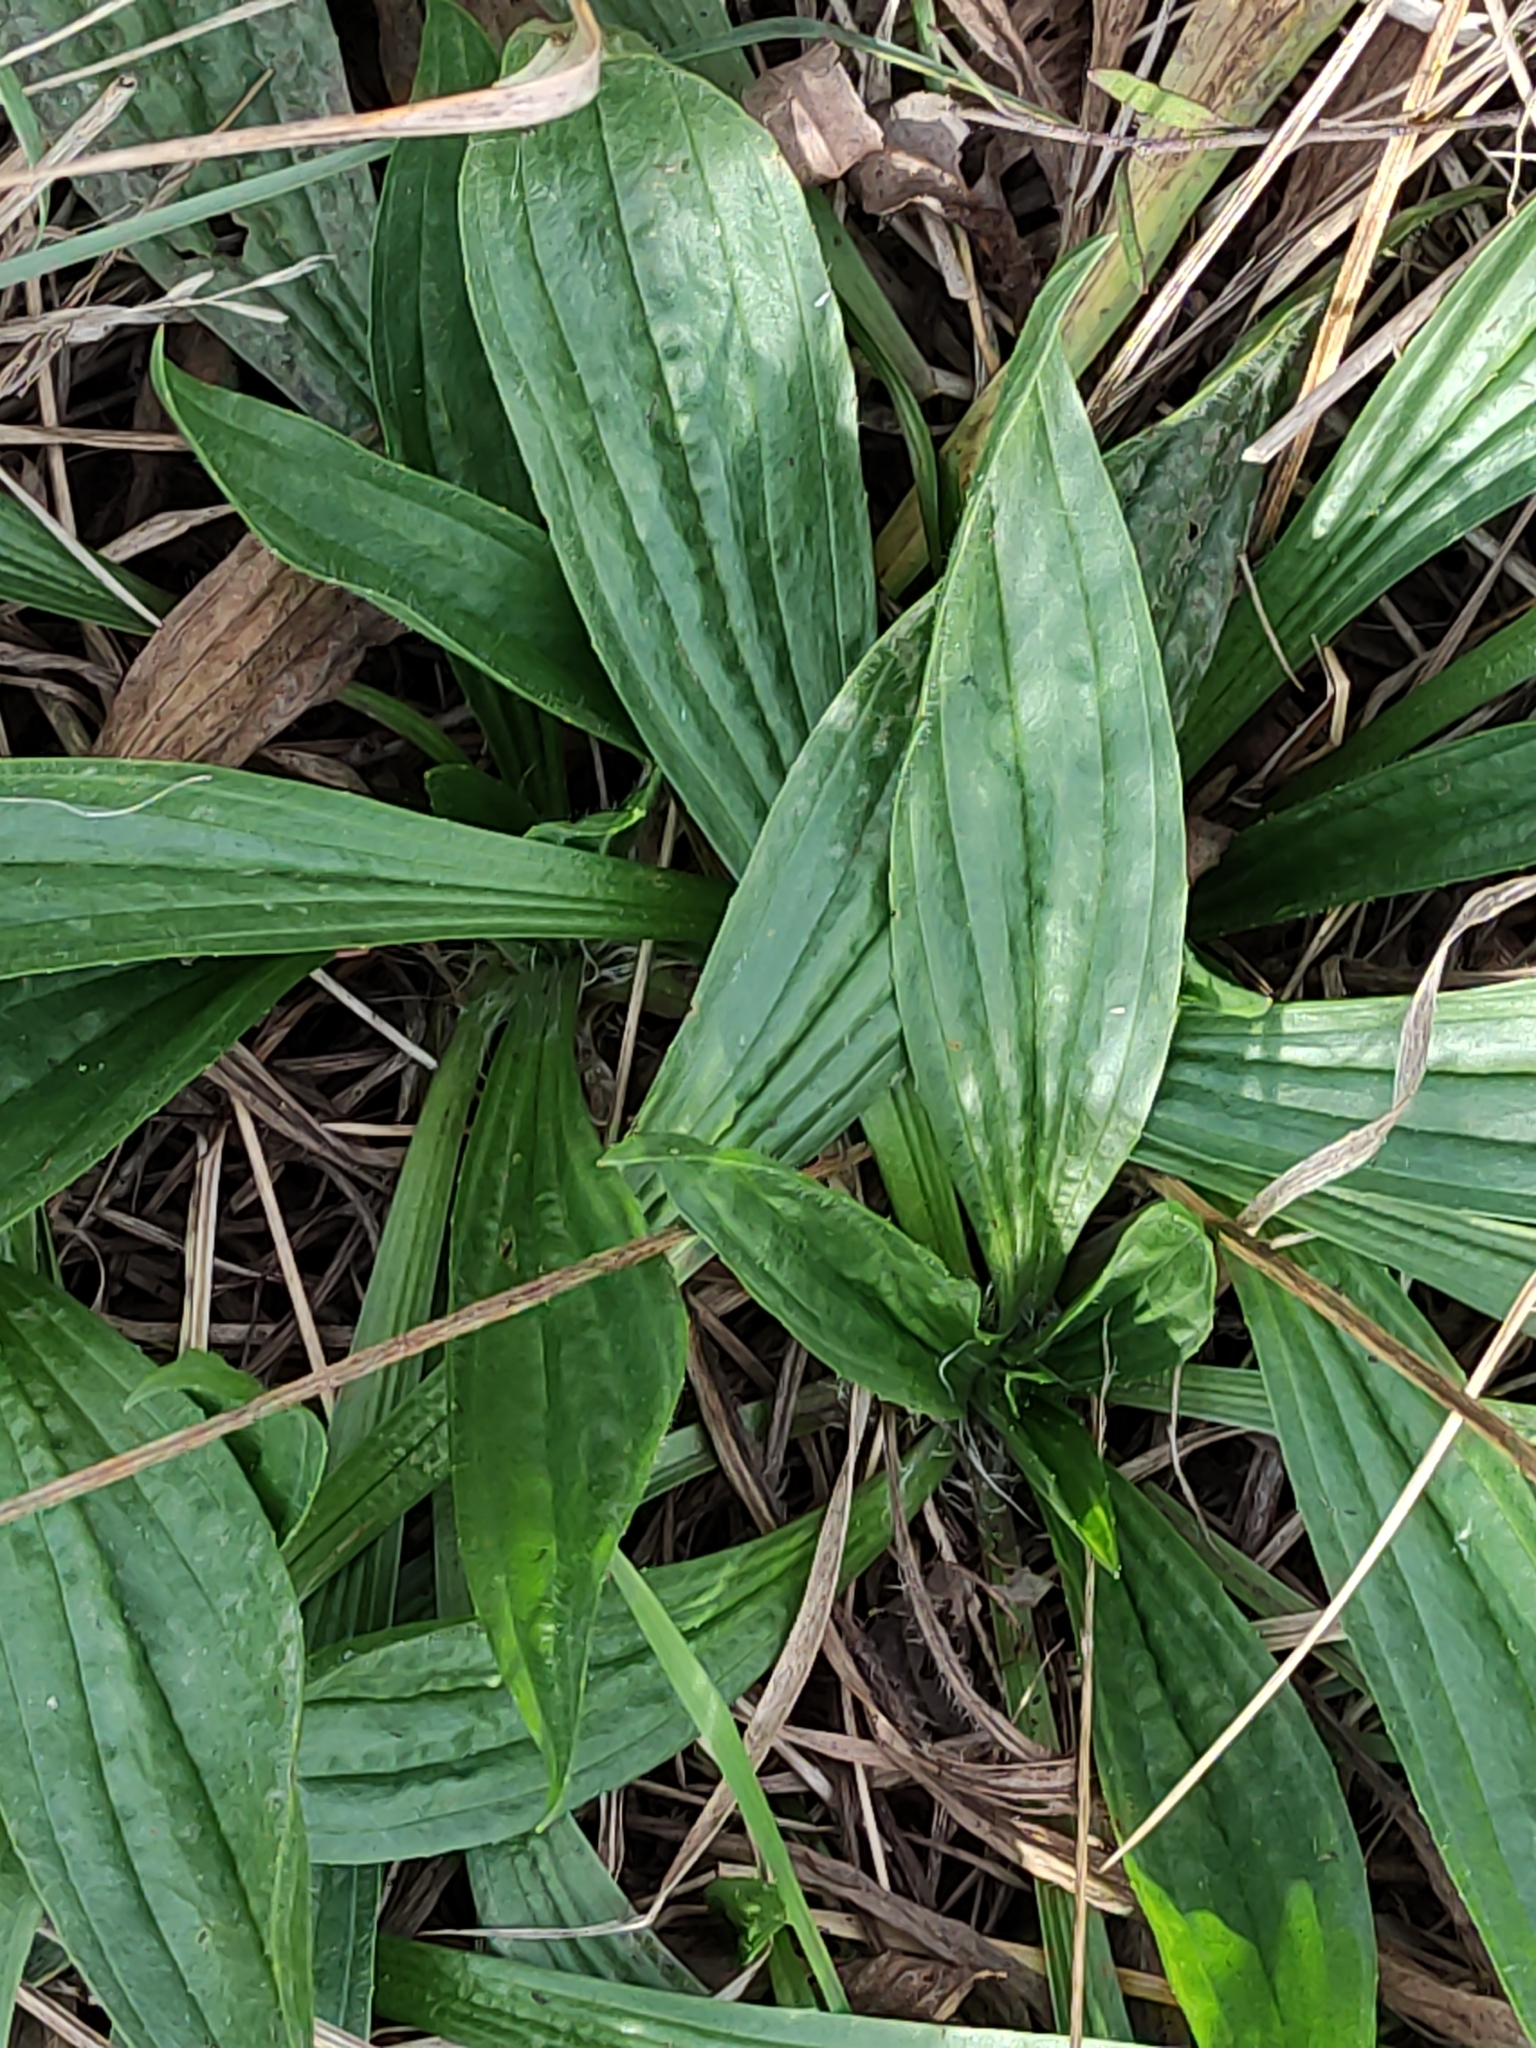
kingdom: Plantae
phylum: Tracheophyta
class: Magnoliopsida
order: Lamiales
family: Plantaginaceae
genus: Plantago
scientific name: Plantago lanceolata
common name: Ribwort plantain
